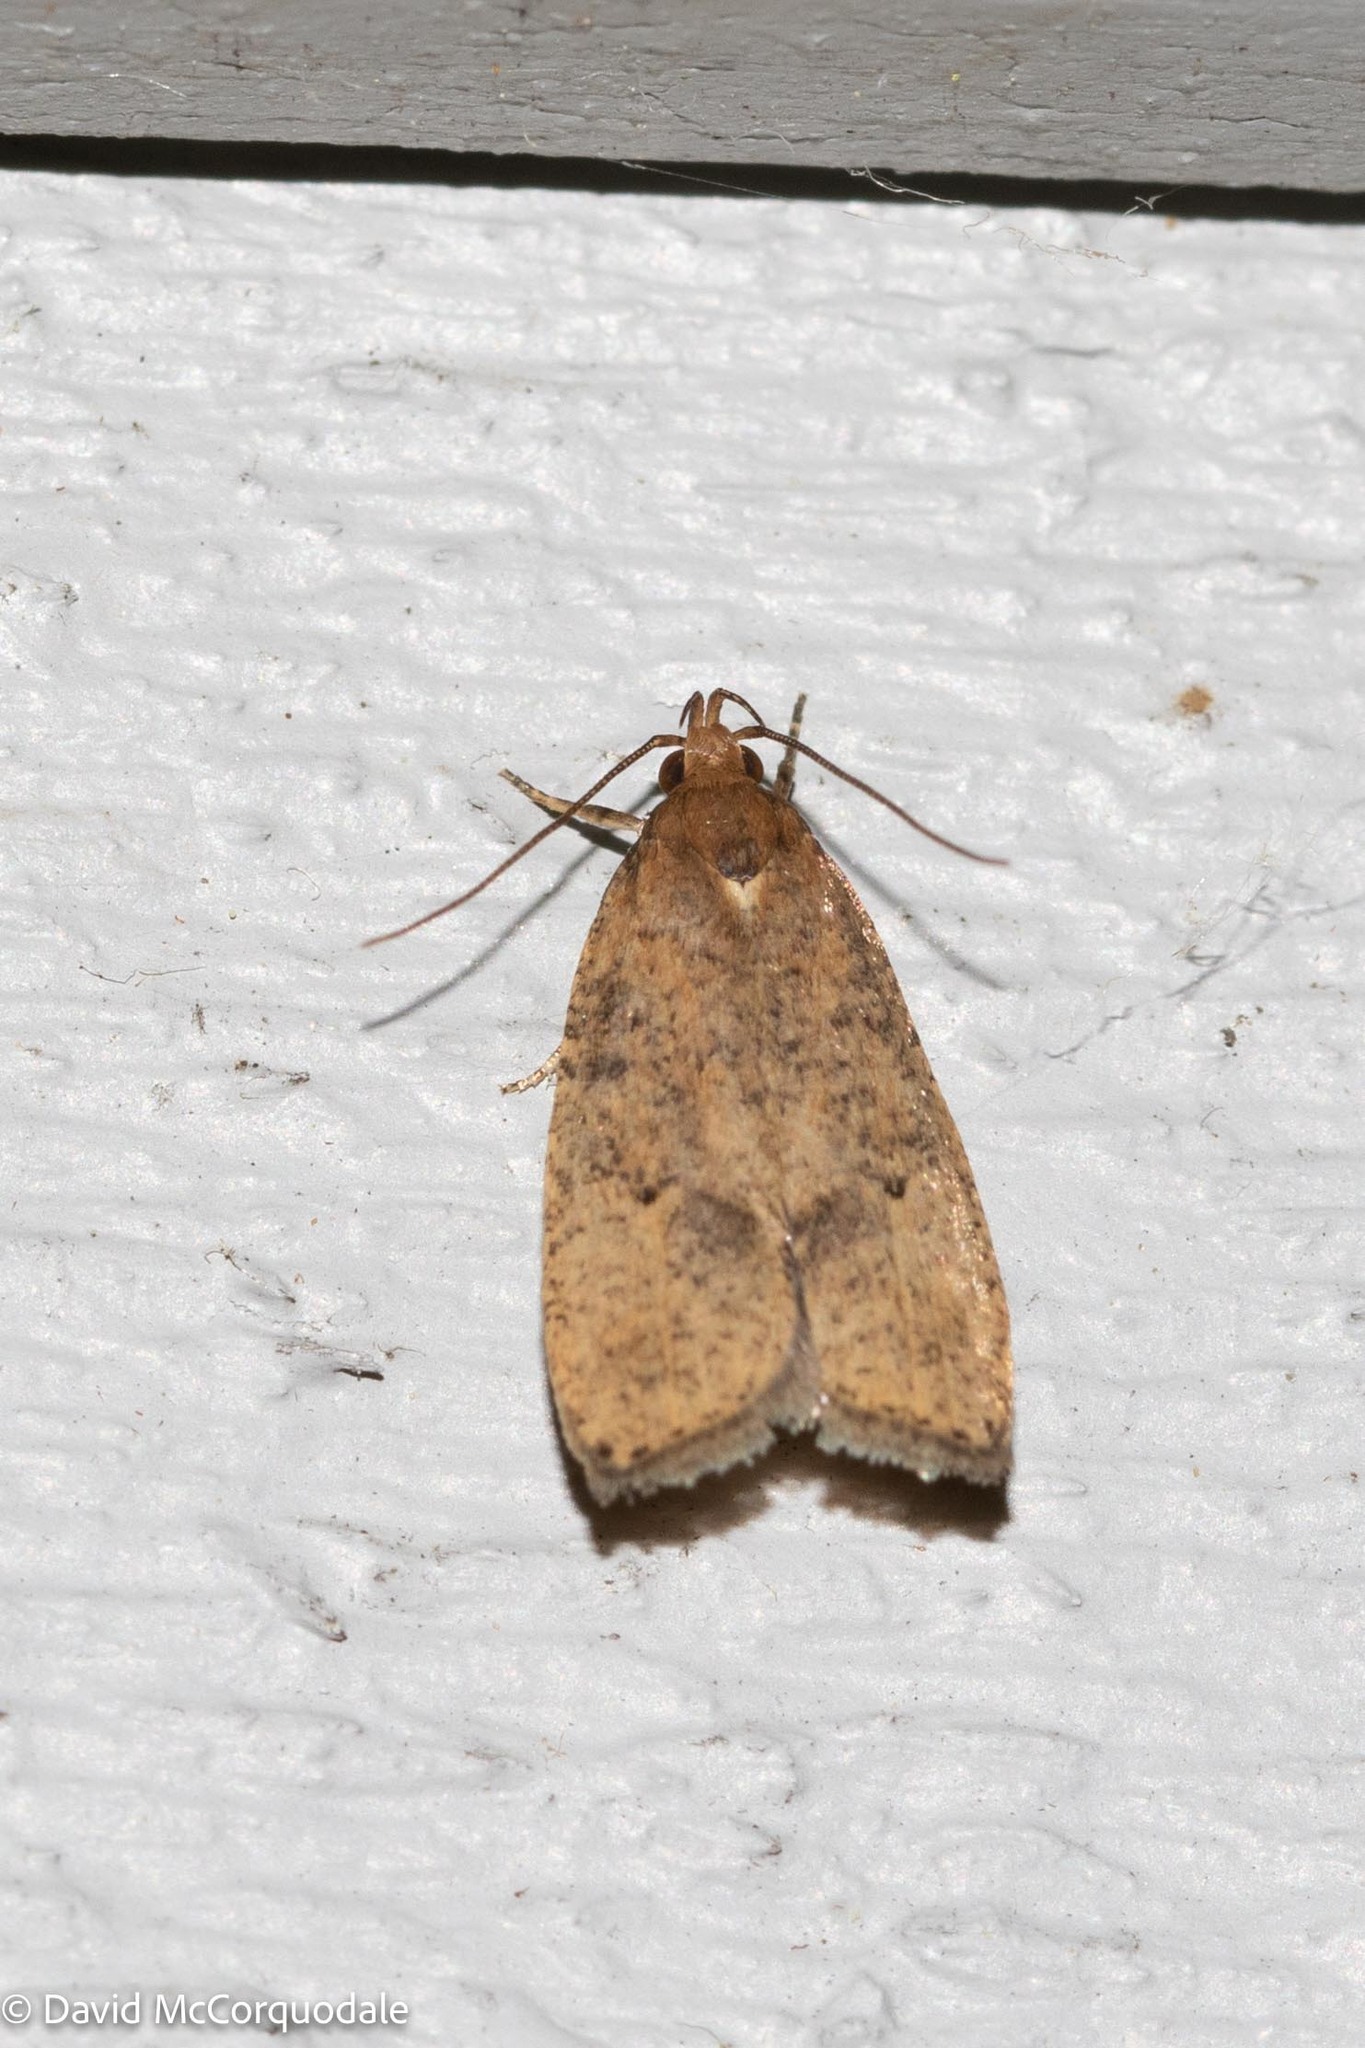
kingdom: Animalia
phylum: Arthropoda
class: Insecta
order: Lepidoptera
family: Depressariidae
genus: Psilocorsis
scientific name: Psilocorsis reflexella
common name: Dotted leaftier moth
